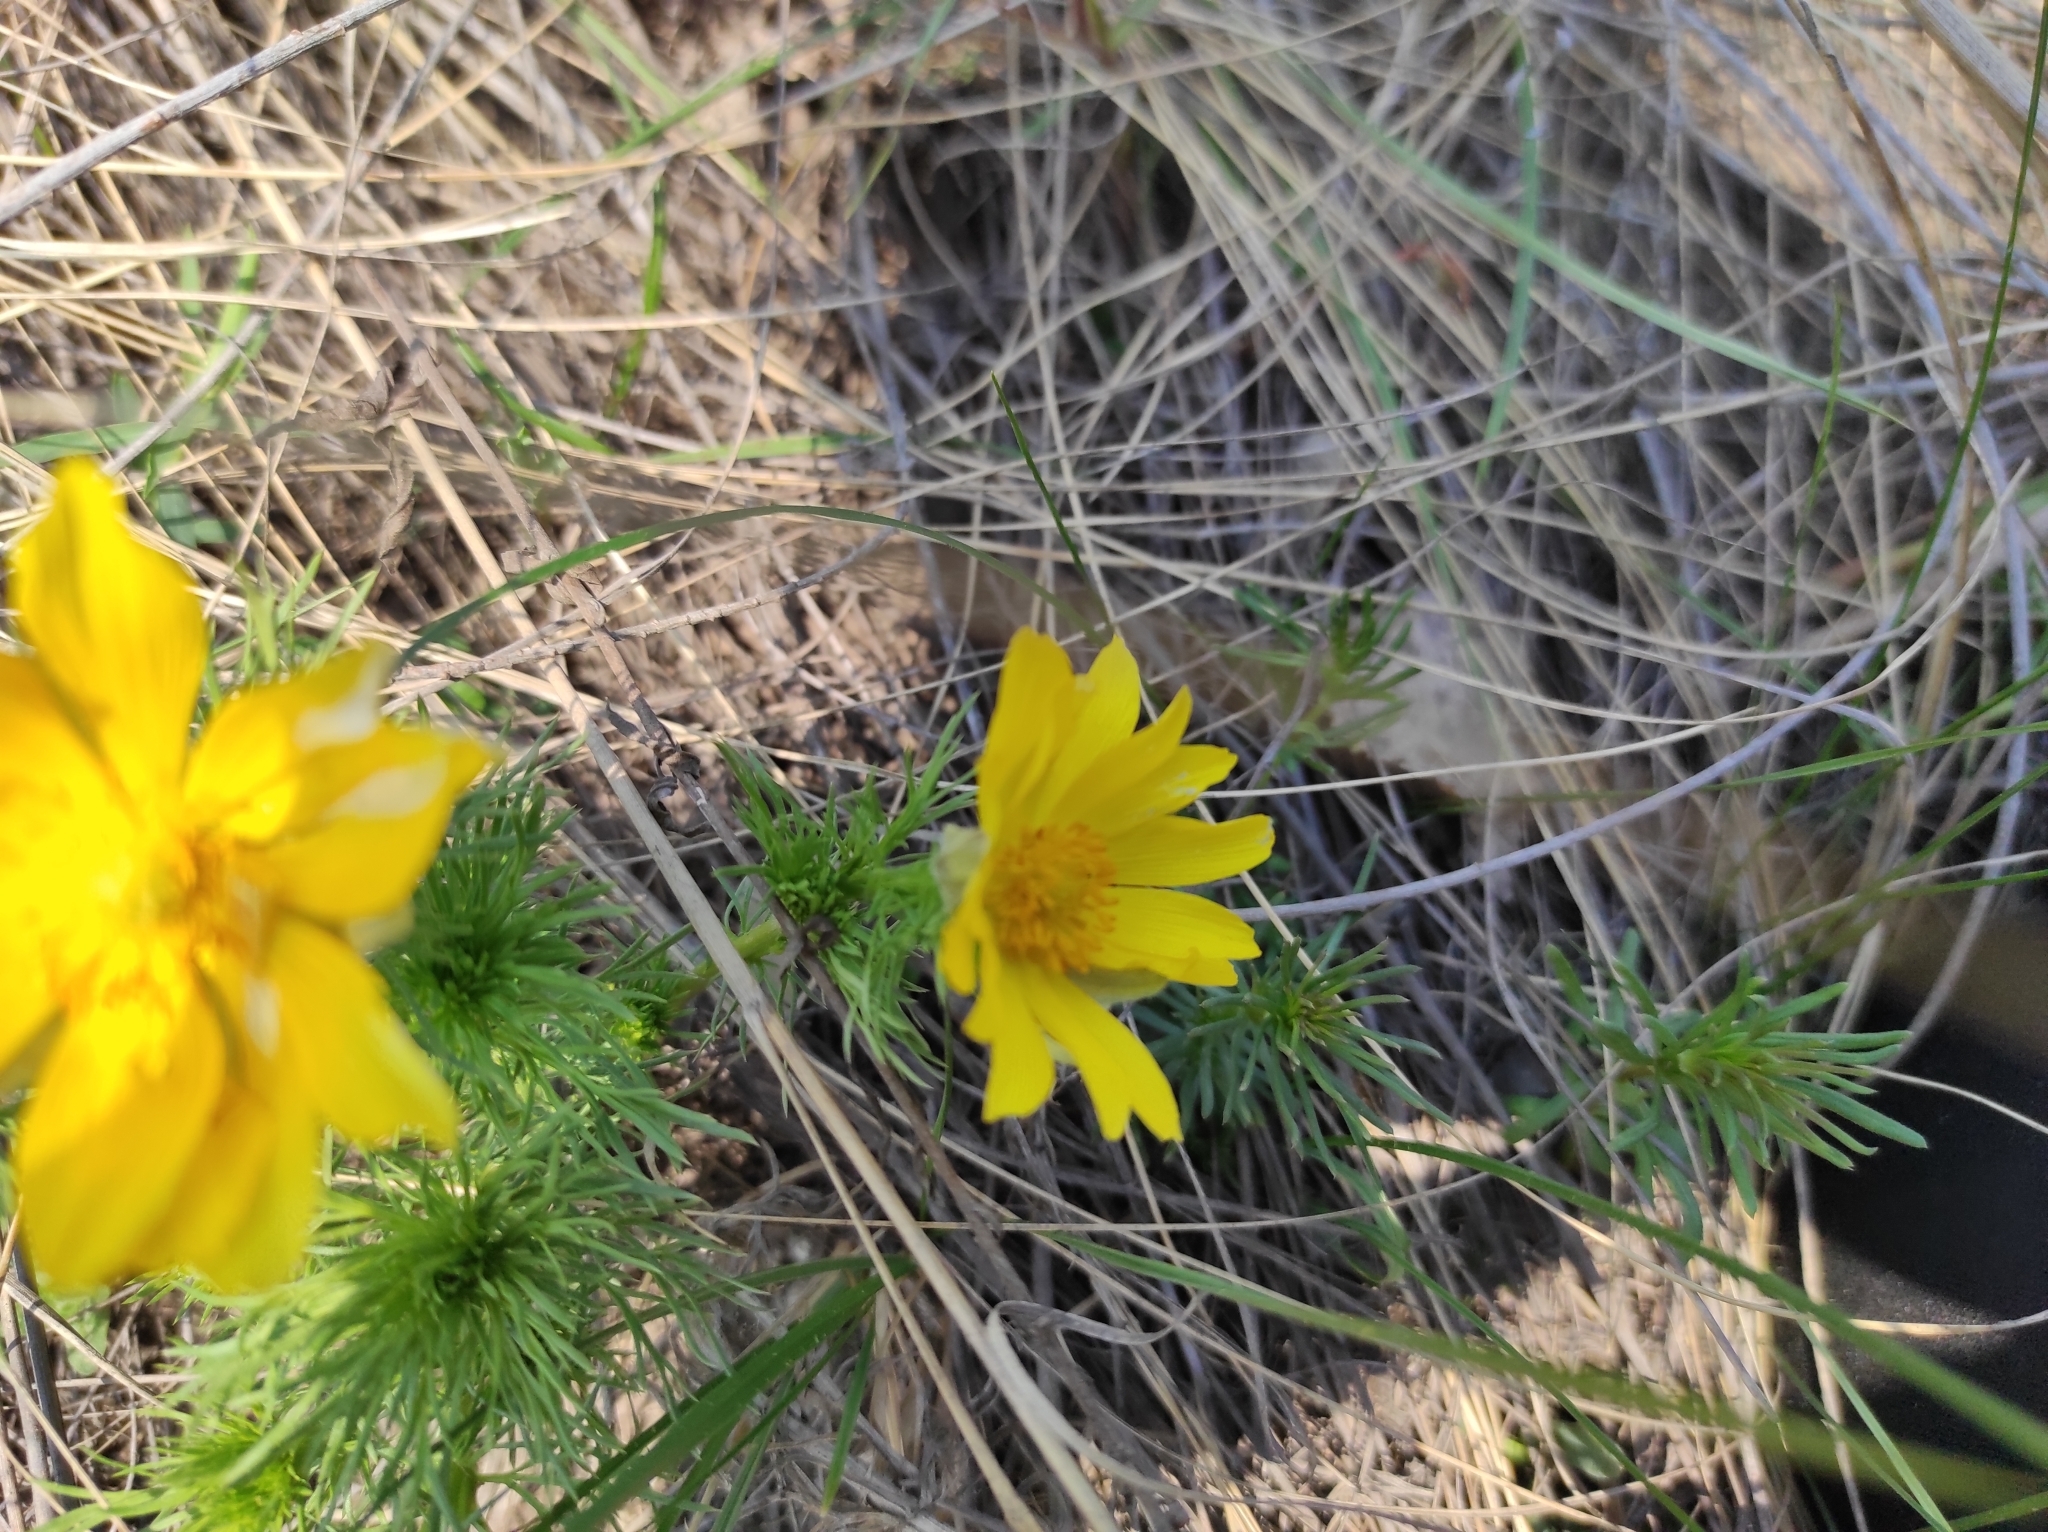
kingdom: Plantae
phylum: Tracheophyta
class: Magnoliopsida
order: Ranunculales
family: Ranunculaceae
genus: Adonis
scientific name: Adonis vernalis
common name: Yellow pheasants-eye
